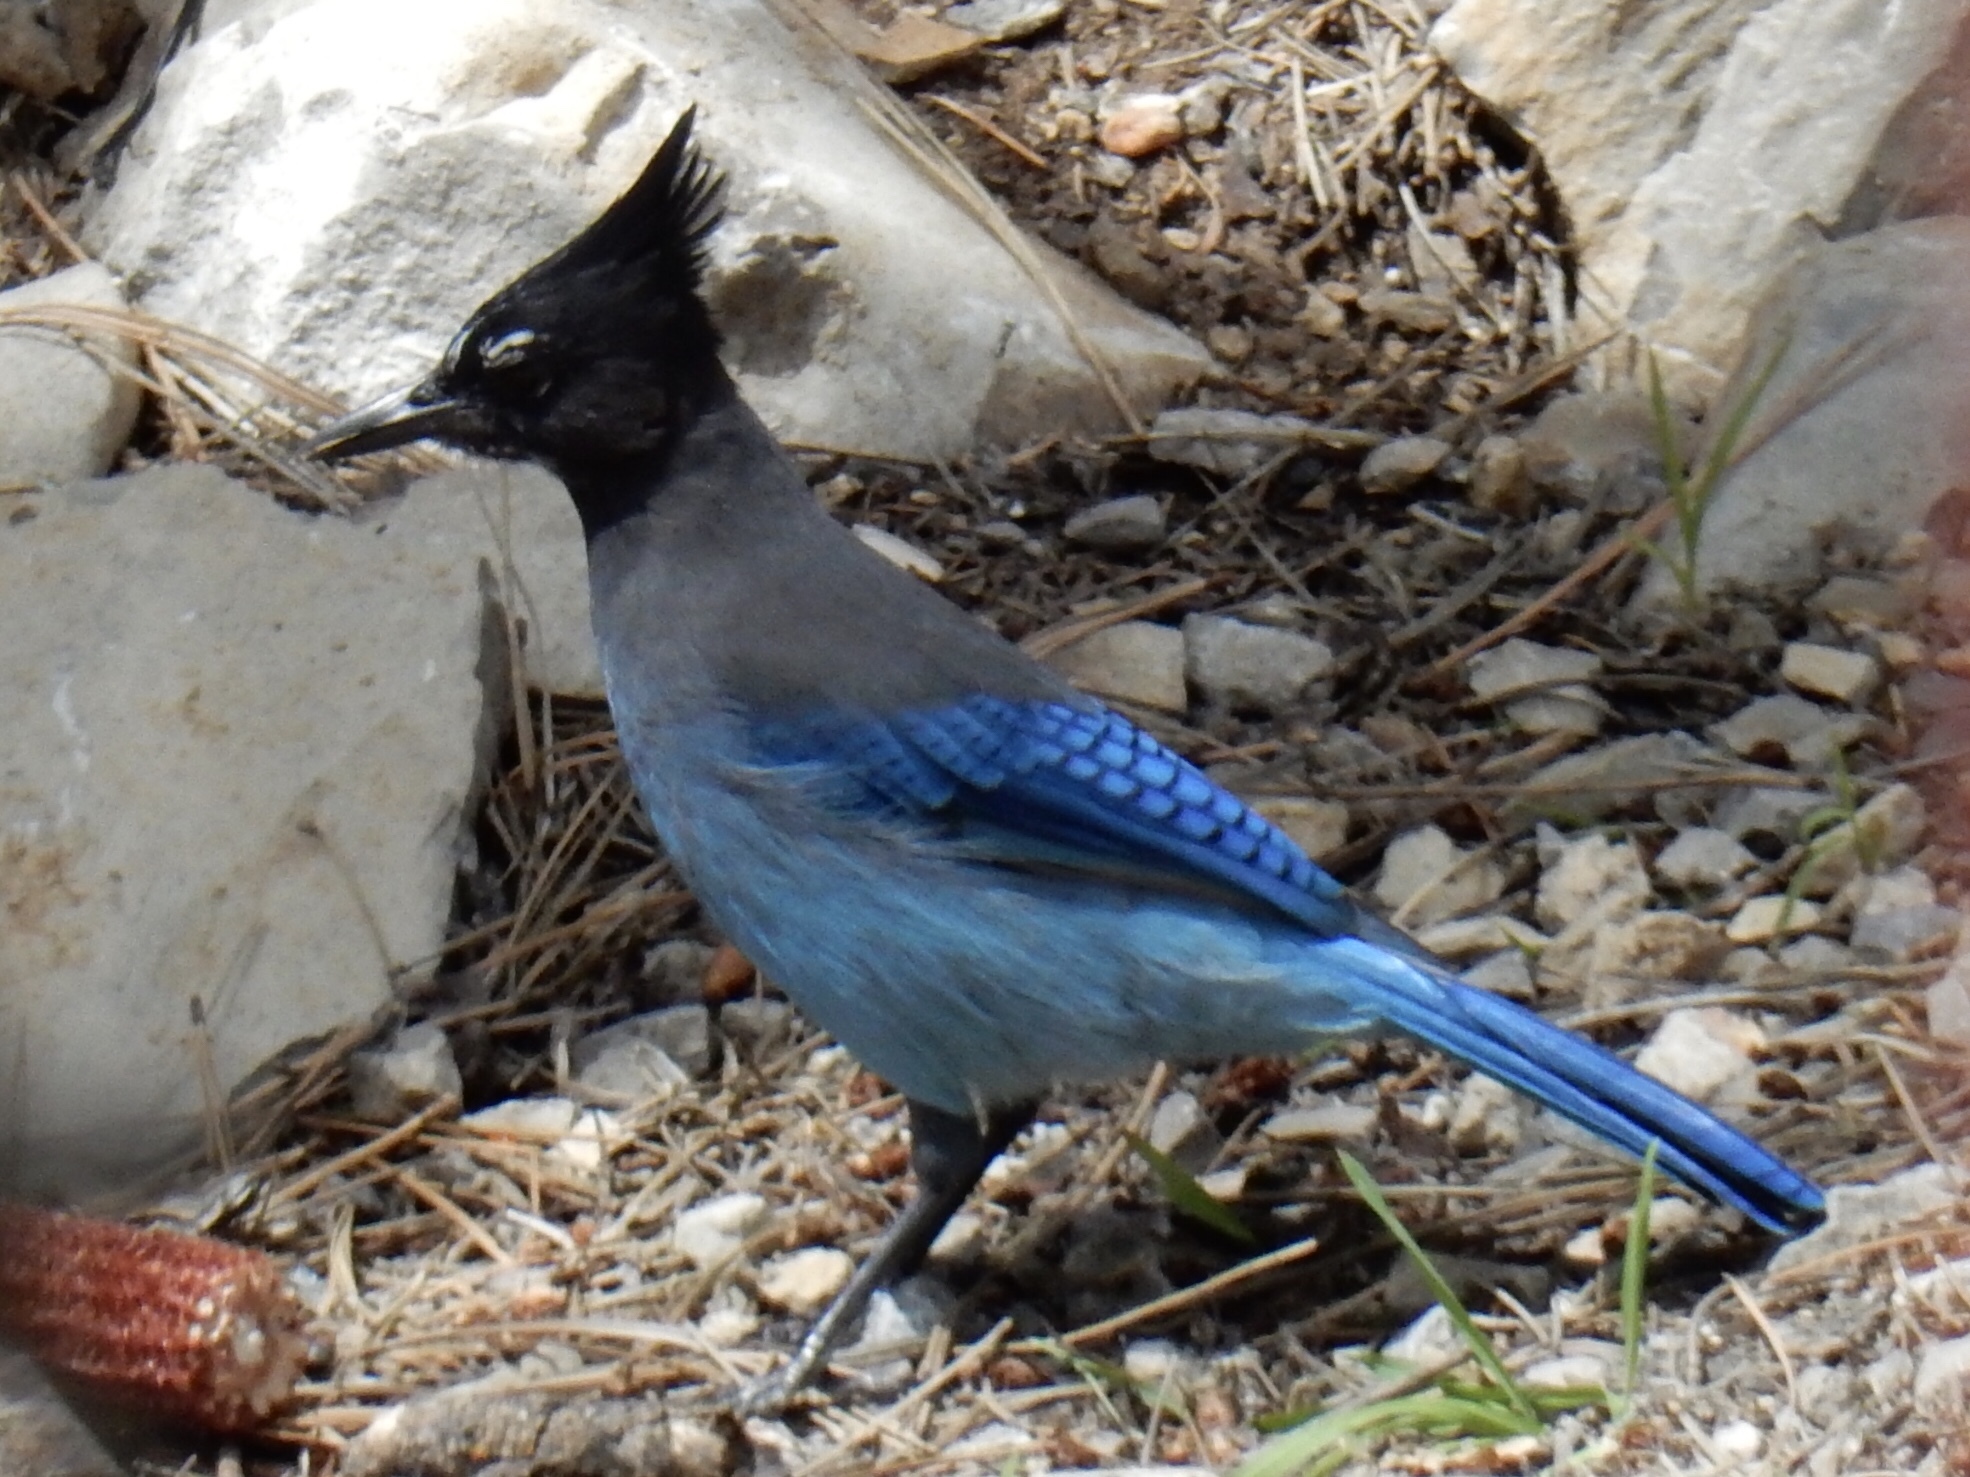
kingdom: Animalia
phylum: Chordata
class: Aves
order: Passeriformes
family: Corvidae
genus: Cyanocitta
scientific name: Cyanocitta stelleri
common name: Steller's jay
